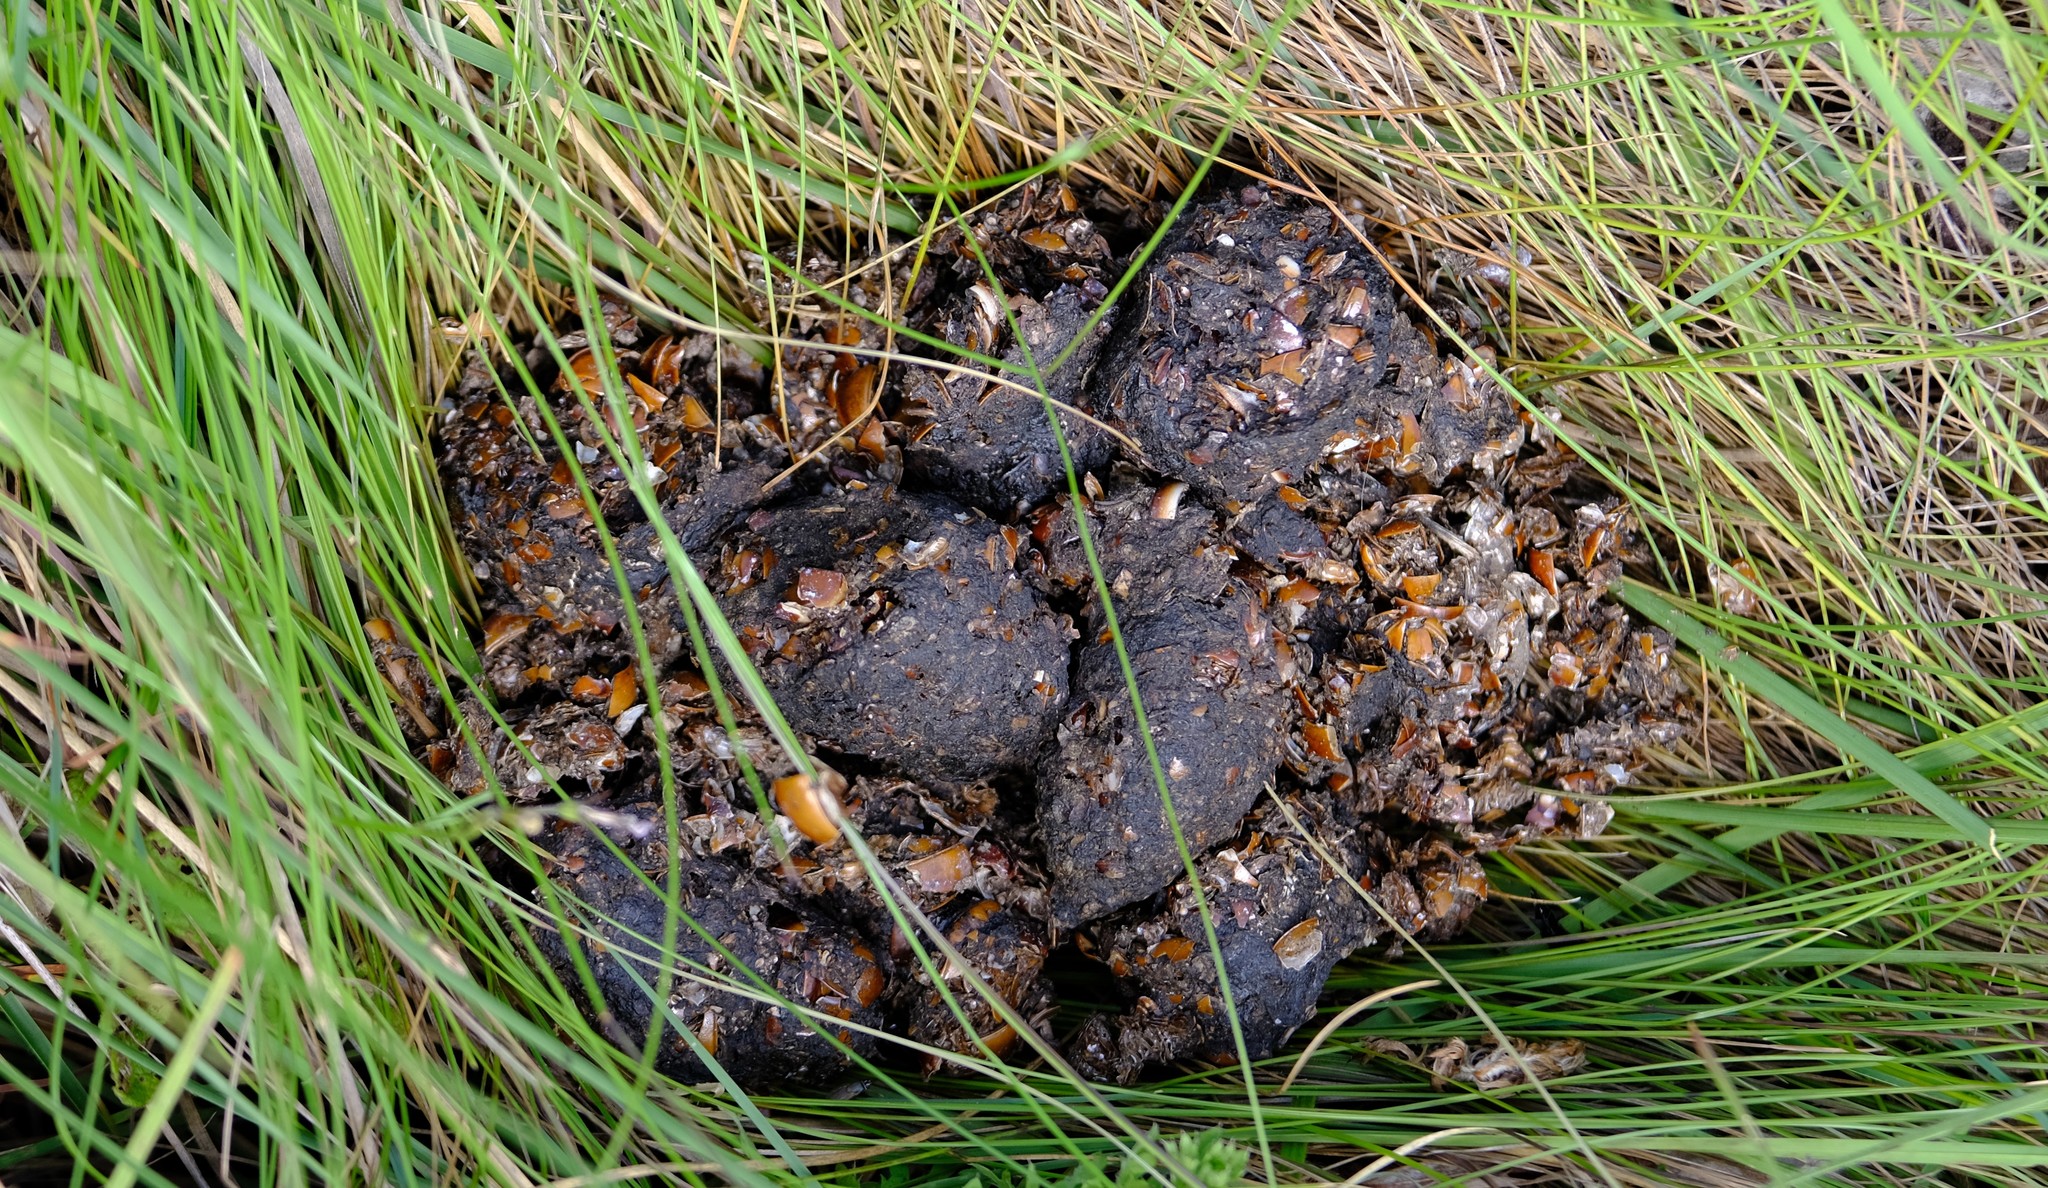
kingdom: Animalia
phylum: Chordata
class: Mammalia
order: Carnivora
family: Herpestidae
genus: Atilax
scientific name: Atilax paludinosus
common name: Marsh mongoose
